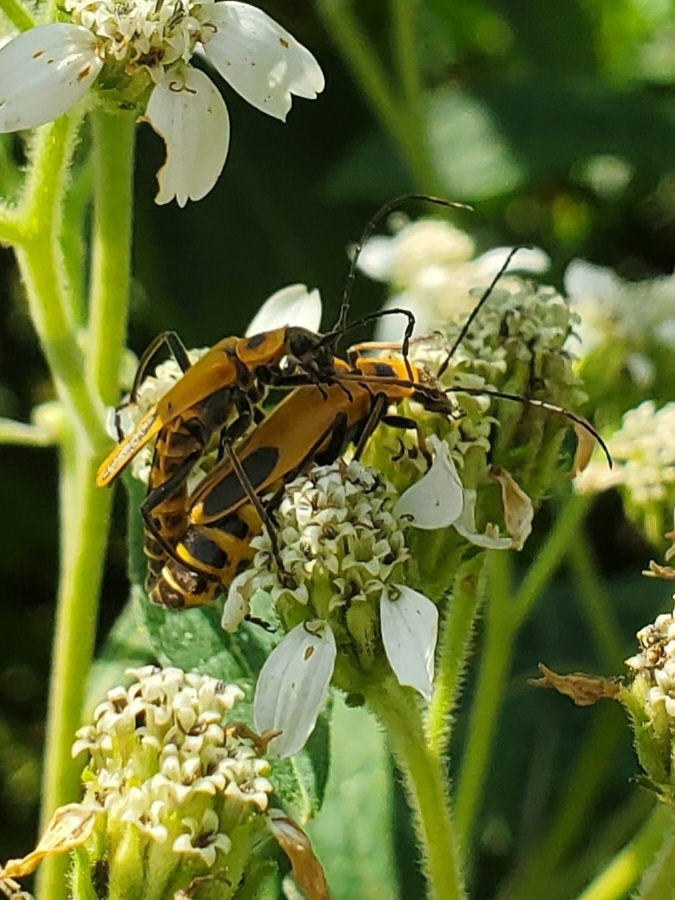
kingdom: Animalia
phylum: Arthropoda
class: Insecta
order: Coleoptera
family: Cantharidae
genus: Chauliognathus
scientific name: Chauliognathus pensylvanicus
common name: Goldenrod soldier beetle
